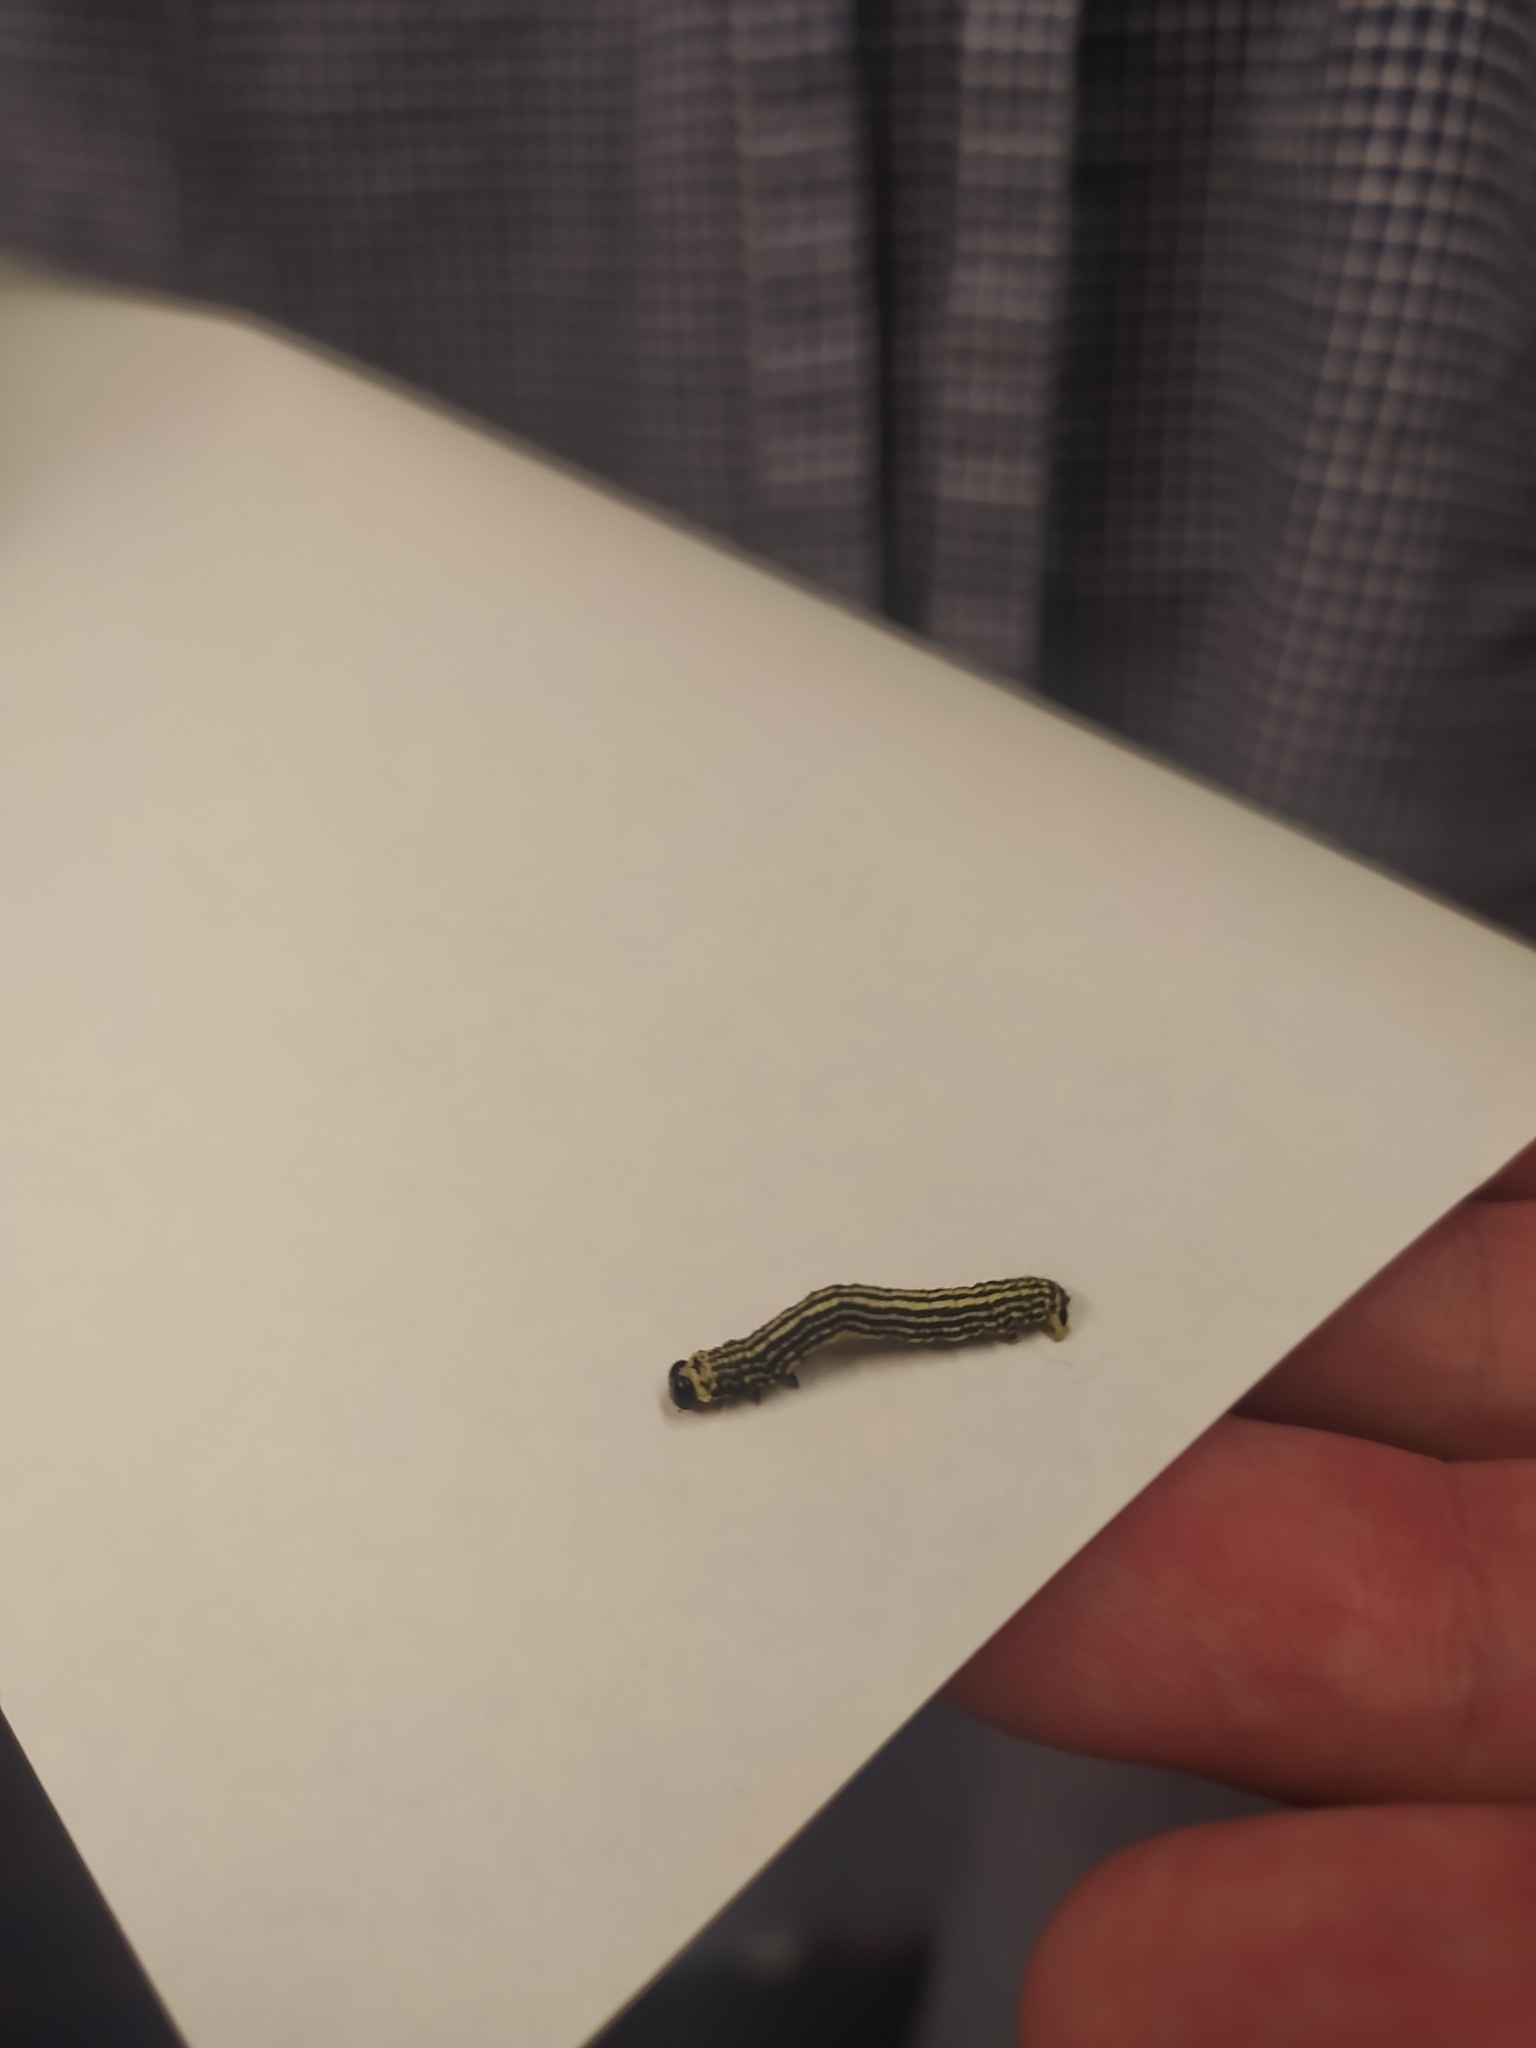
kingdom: Animalia
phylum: Arthropoda
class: Insecta
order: Lepidoptera
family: Geometridae
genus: Abraxas
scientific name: Abraxas sylvata
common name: Clouded magpie
